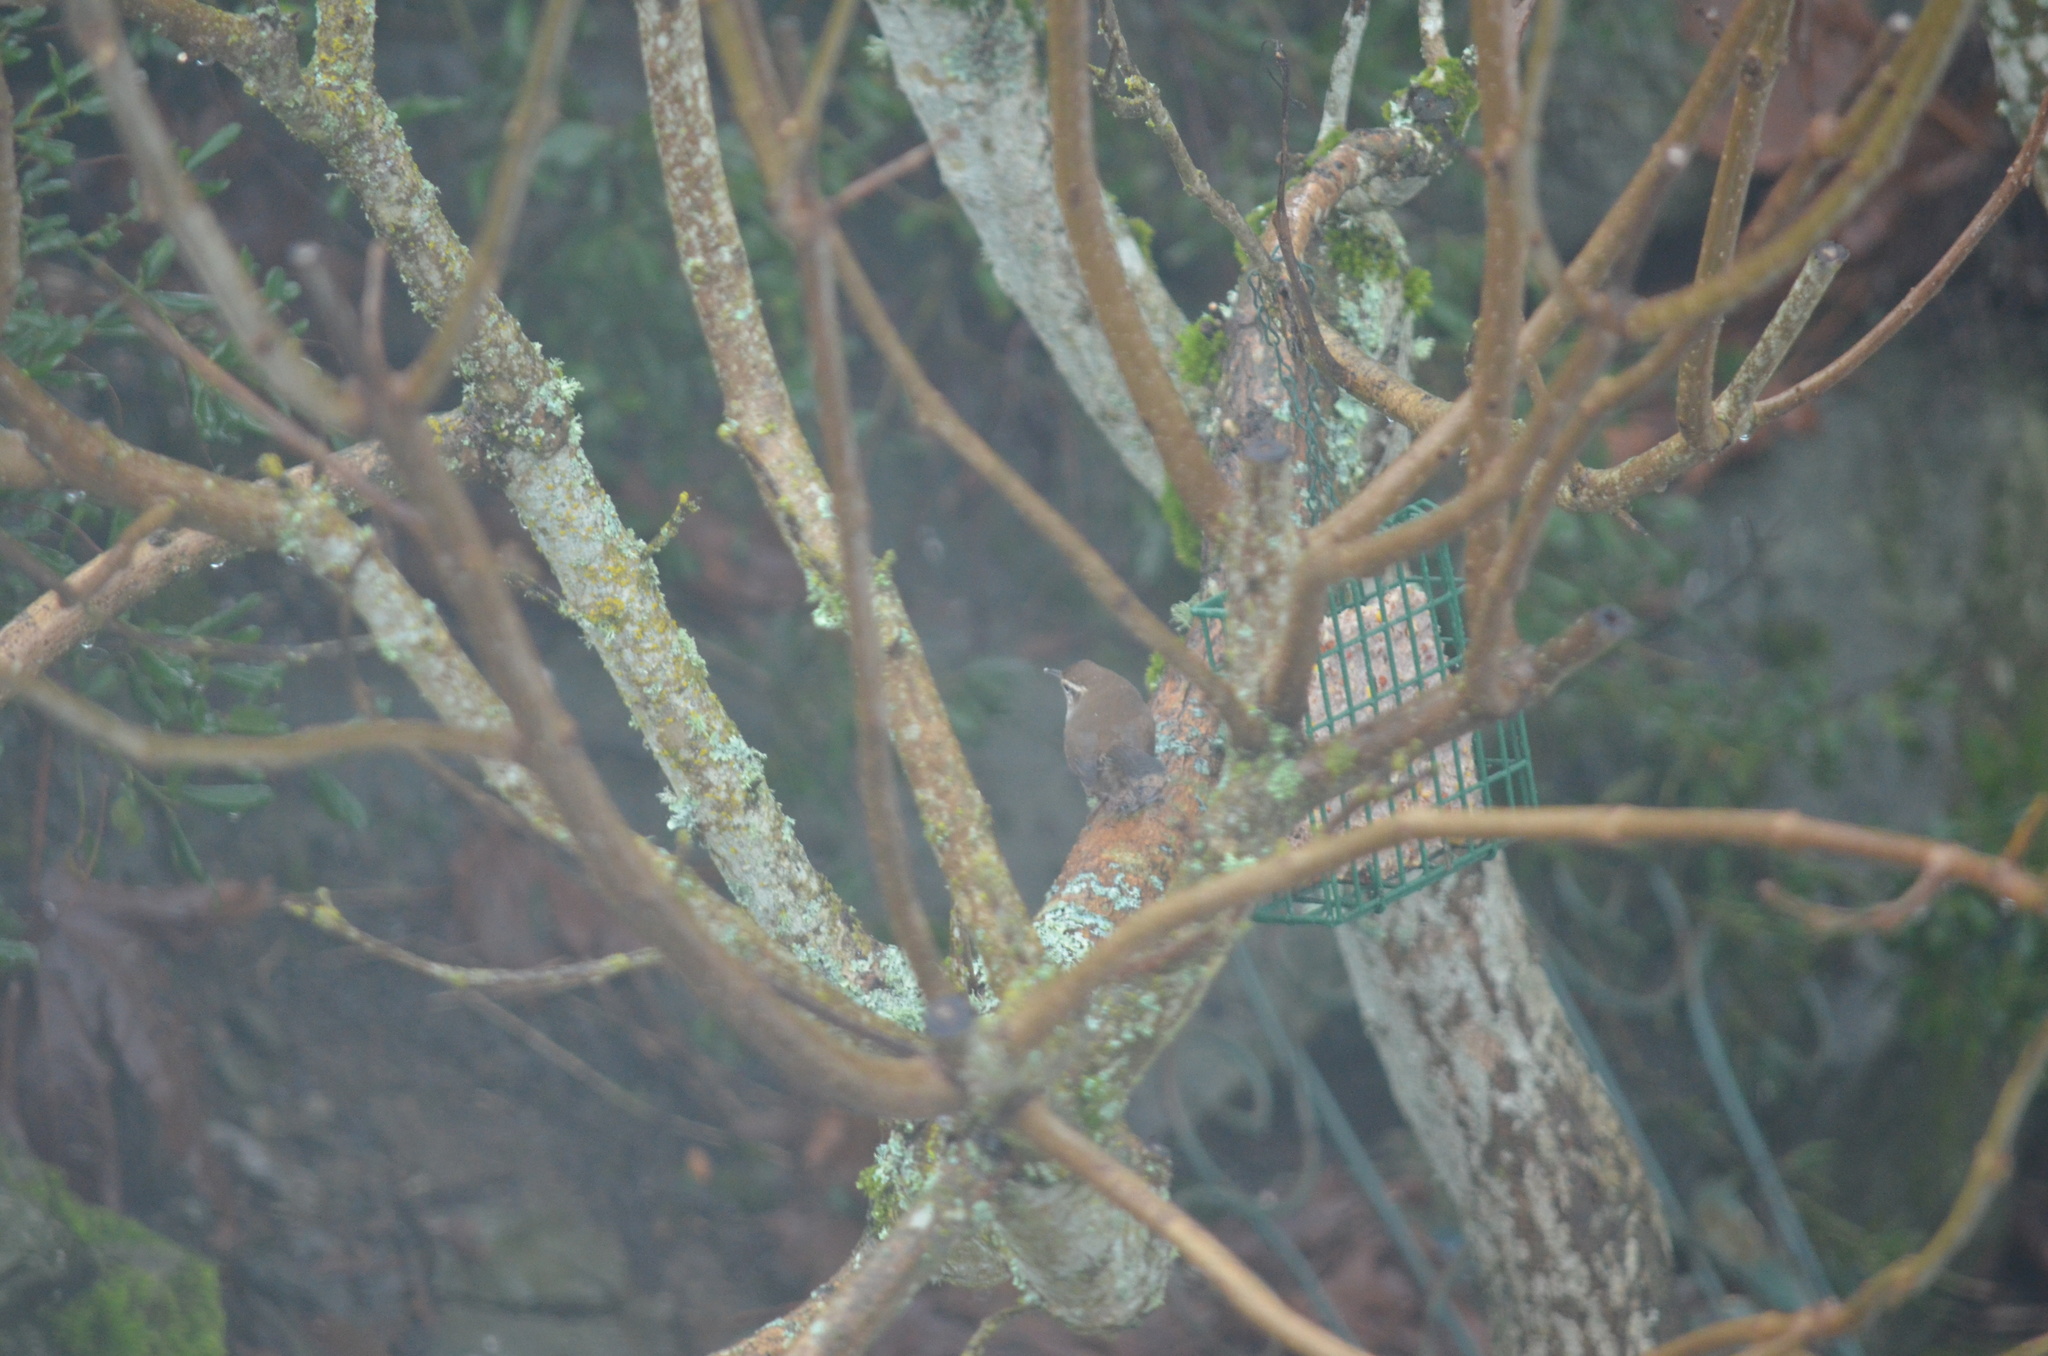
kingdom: Animalia
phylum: Chordata
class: Aves
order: Passeriformes
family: Troglodytidae
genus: Thryomanes
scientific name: Thryomanes bewickii
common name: Bewick's wren
